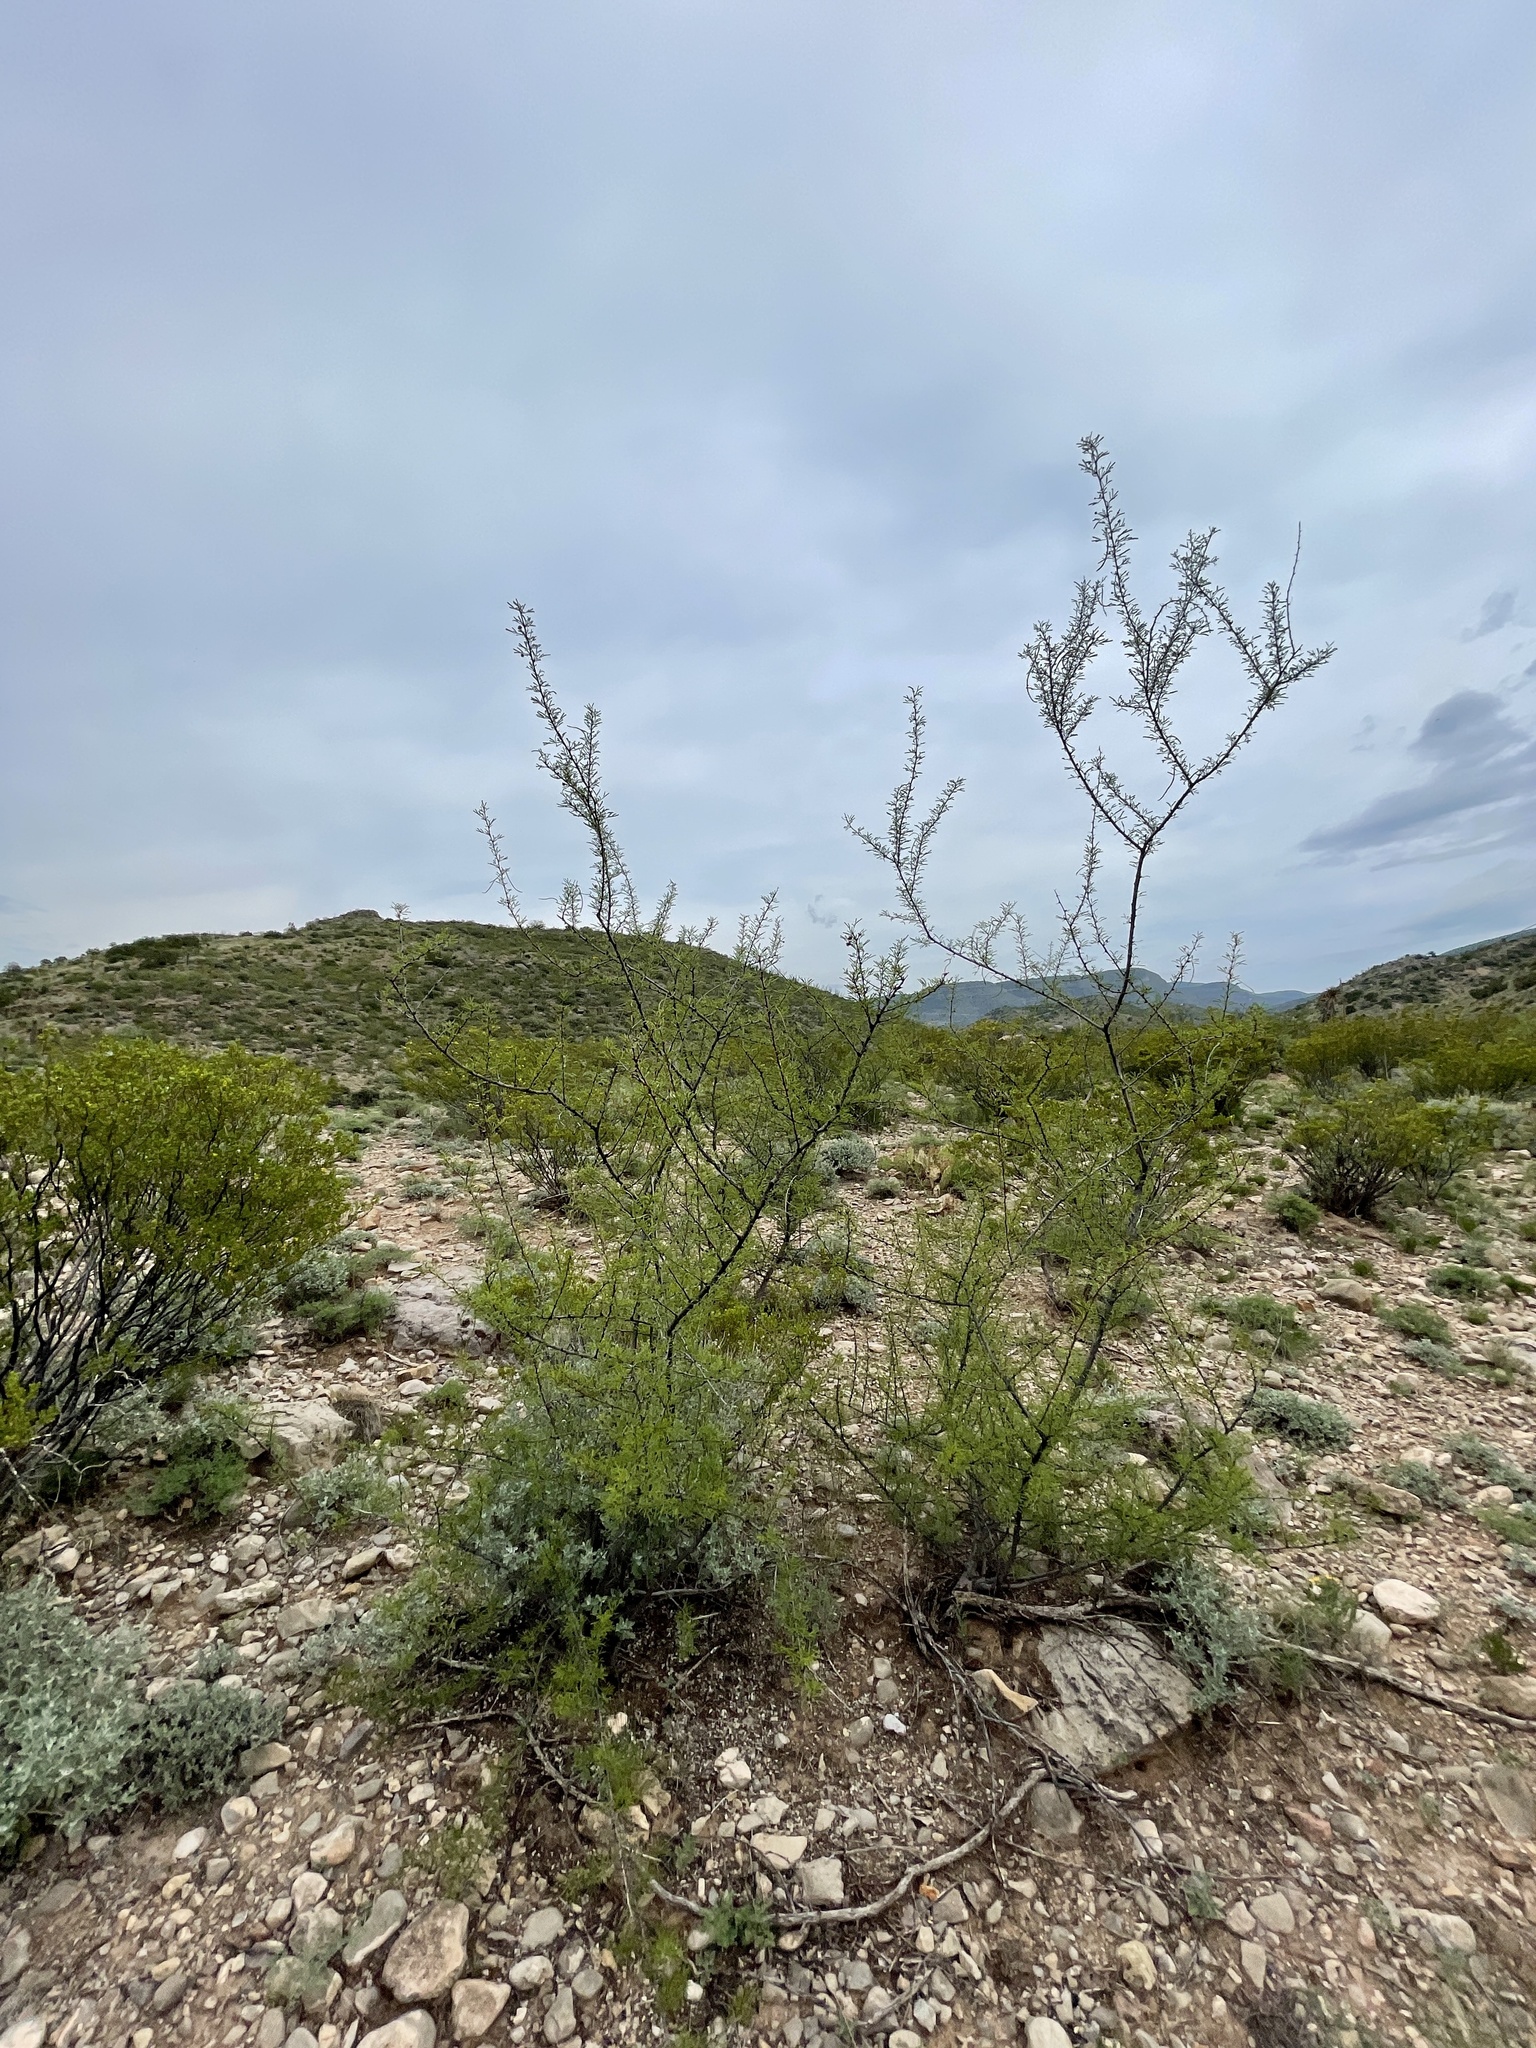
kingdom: Plantae
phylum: Tracheophyta
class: Magnoliopsida
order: Fabales
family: Fabaceae
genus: Vachellia
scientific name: Vachellia constricta
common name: Mescat acacia
